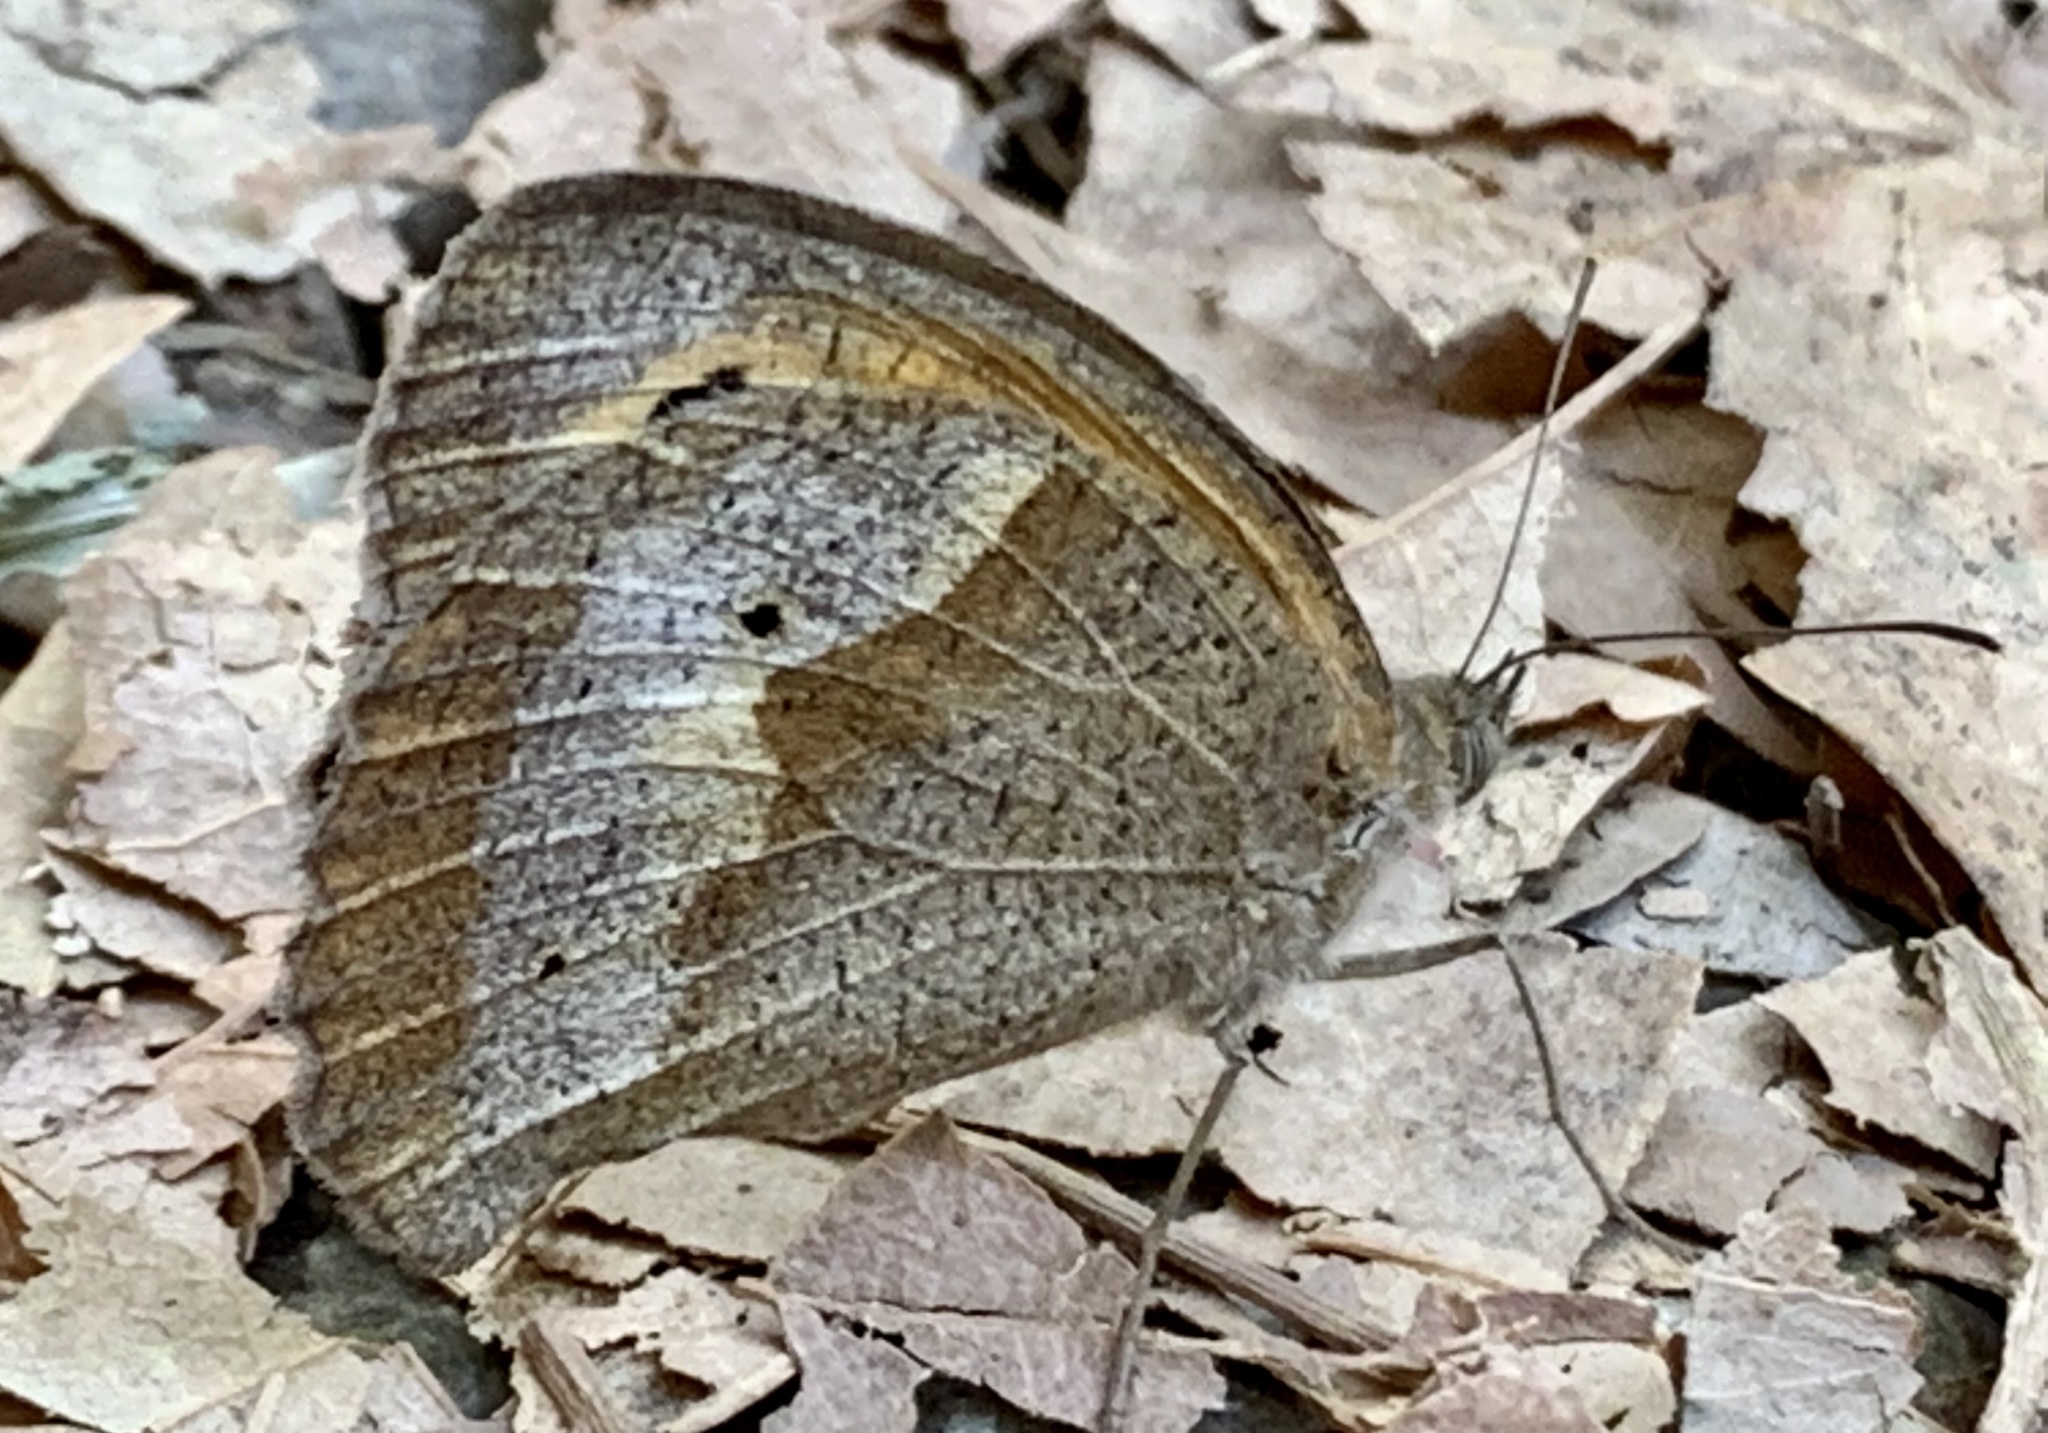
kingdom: Animalia
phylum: Arthropoda
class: Insecta
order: Lepidoptera
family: Nymphalidae
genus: Maniola
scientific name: Maniola jurtina
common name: Meadow brown
